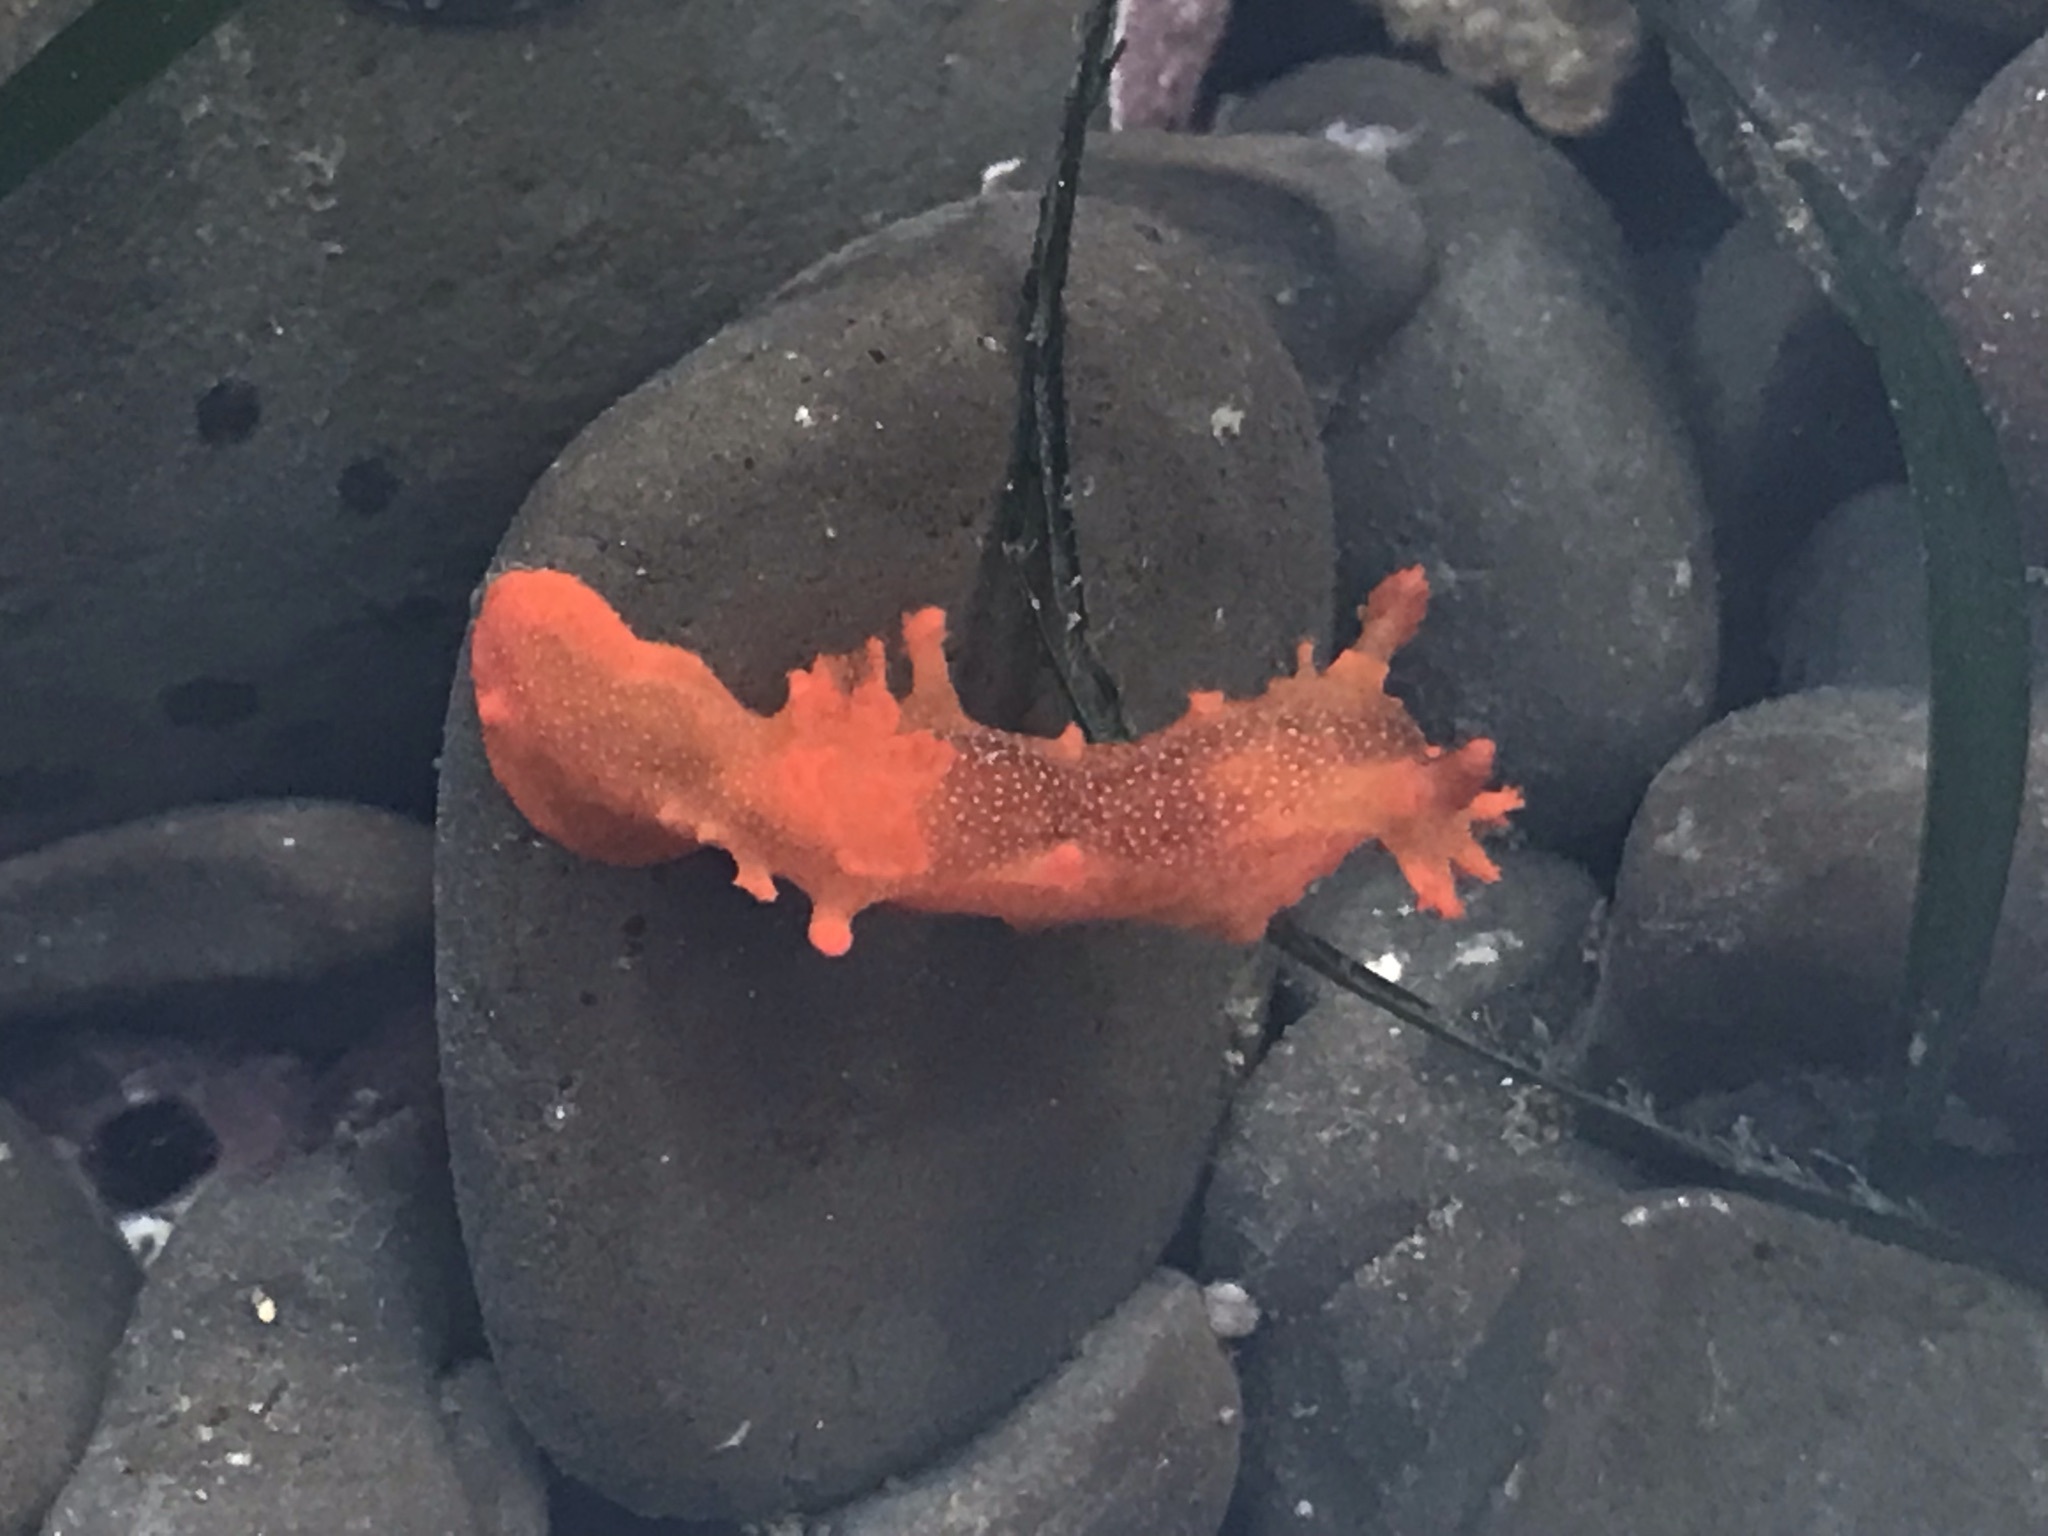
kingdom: Animalia
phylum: Mollusca
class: Gastropoda
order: Nudibranchia
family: Polyceridae
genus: Triopha
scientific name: Triopha maculata
